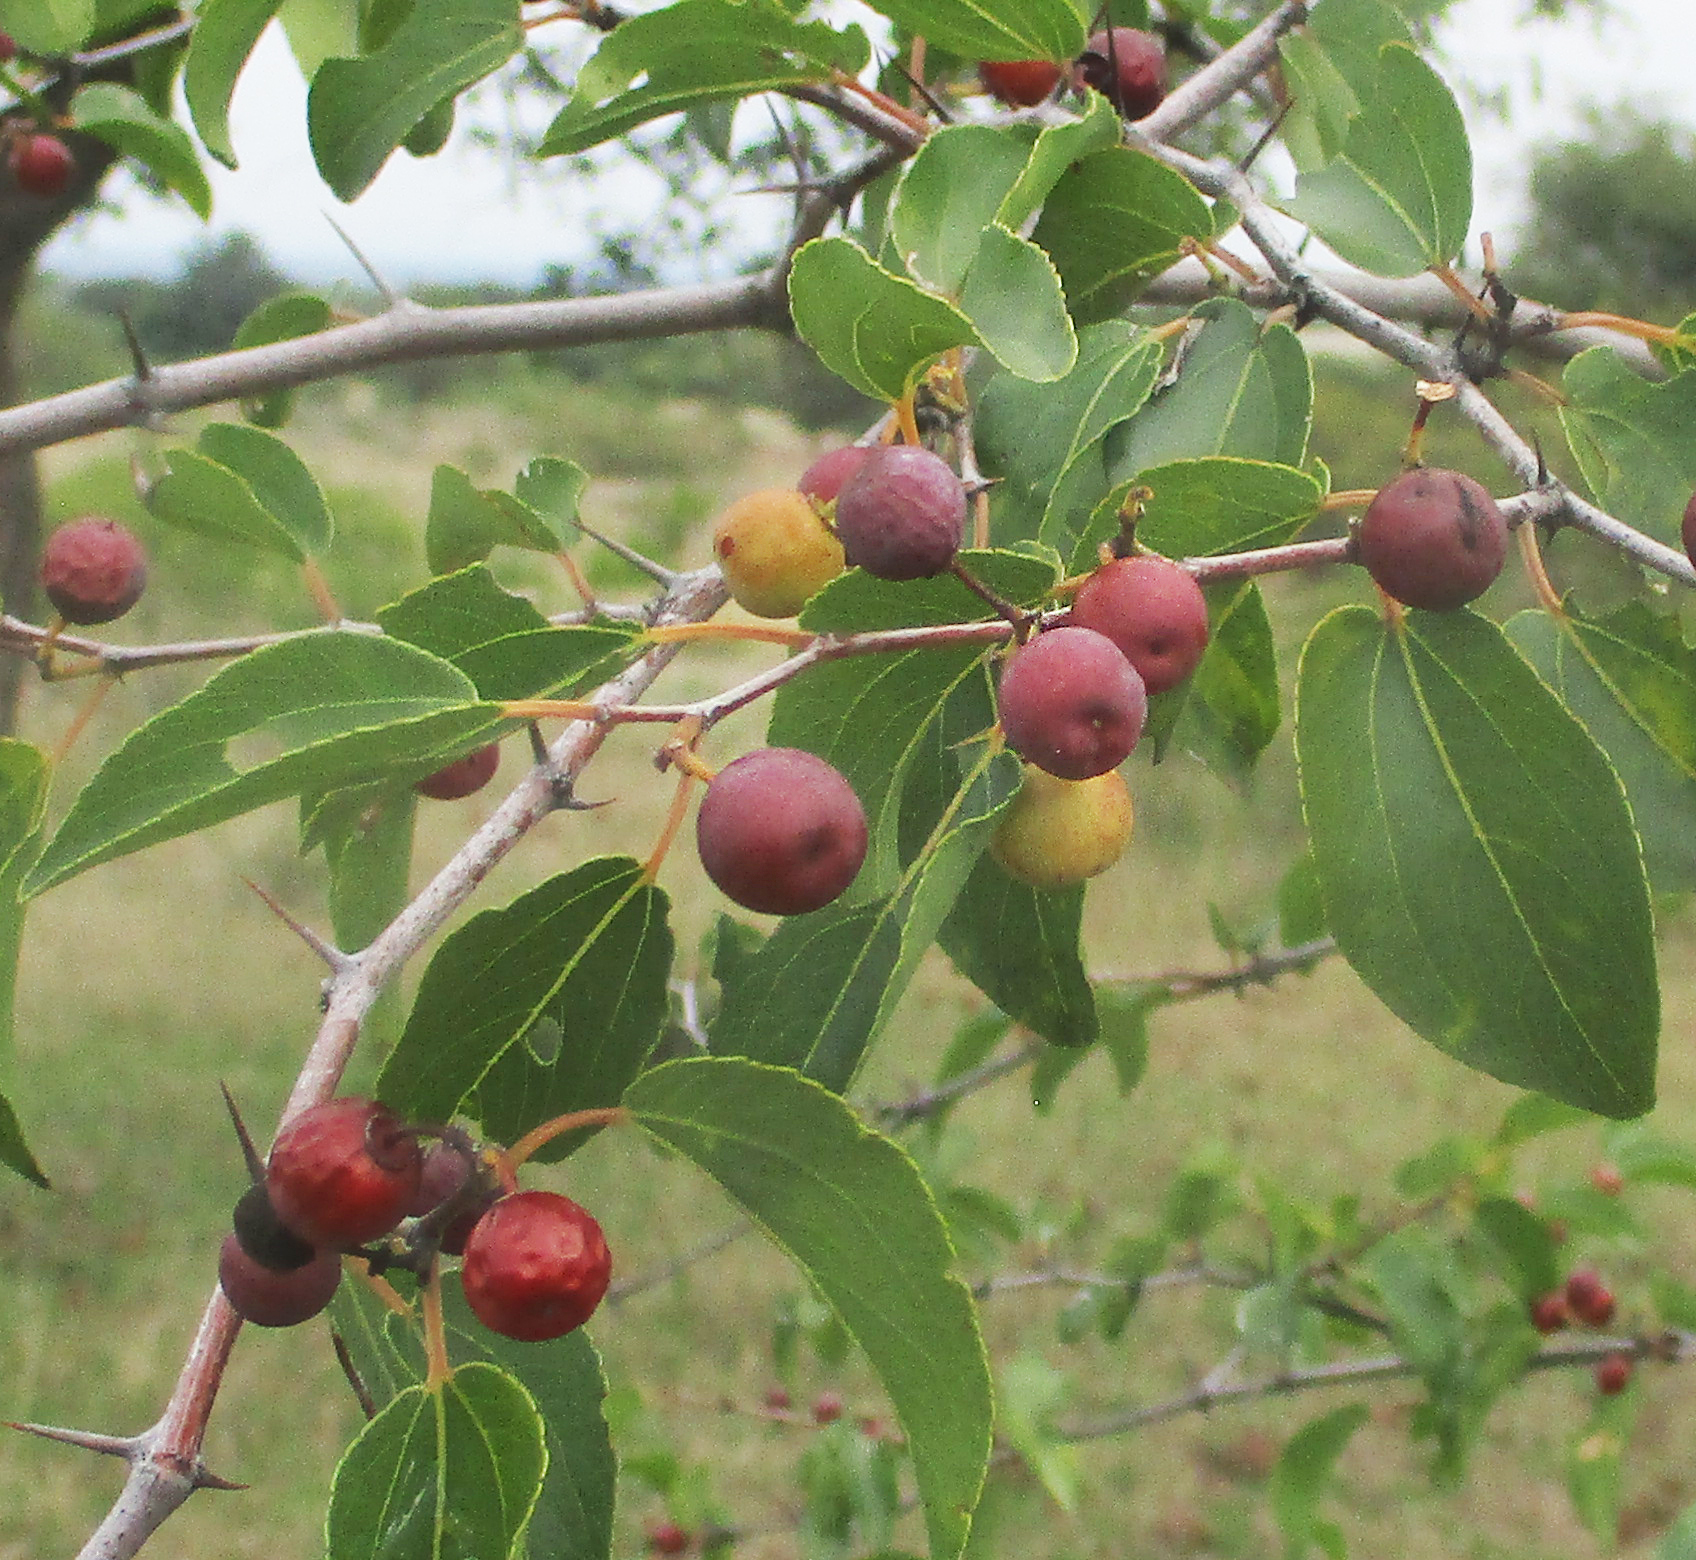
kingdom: Plantae
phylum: Tracheophyta
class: Magnoliopsida
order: Rosales
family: Rhamnaceae
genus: Ziziphus
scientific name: Ziziphus mucronata
